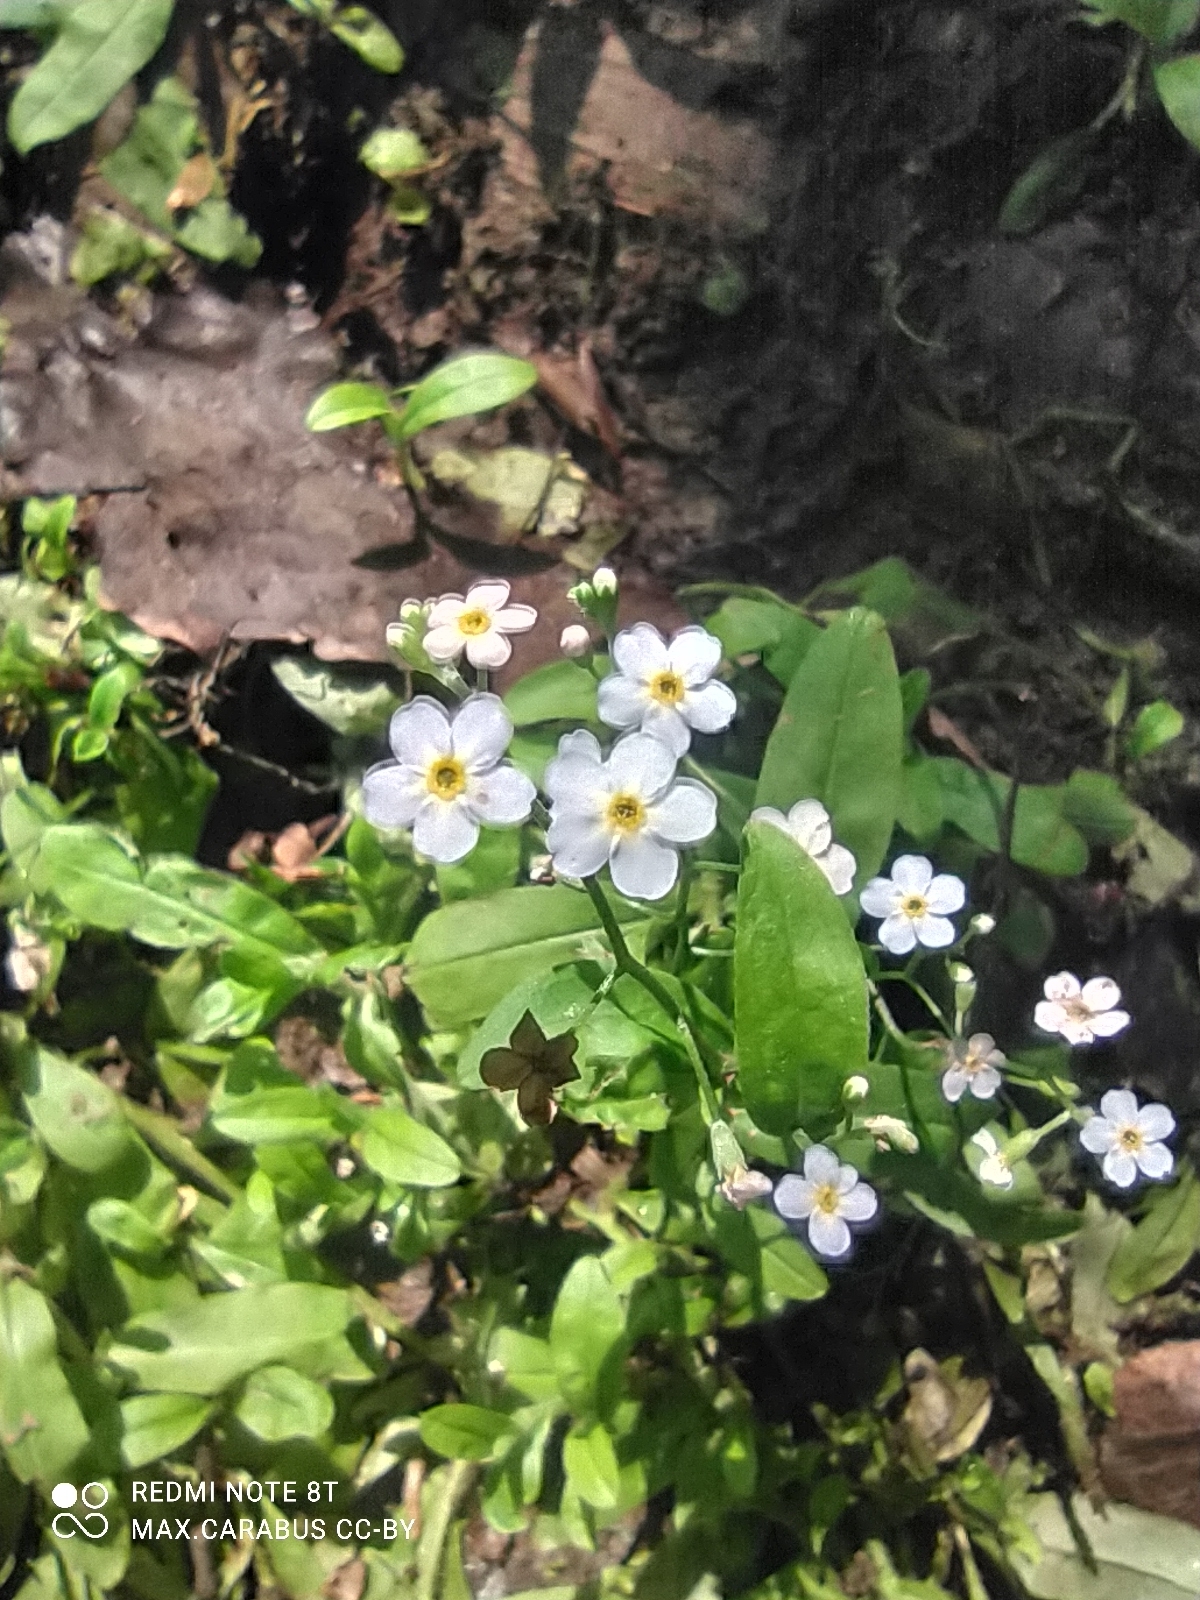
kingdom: Plantae
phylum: Tracheophyta
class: Magnoliopsida
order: Boraginales
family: Boraginaceae
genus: Myosotis
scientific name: Myosotis scorpioides
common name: Water forget-me-not
